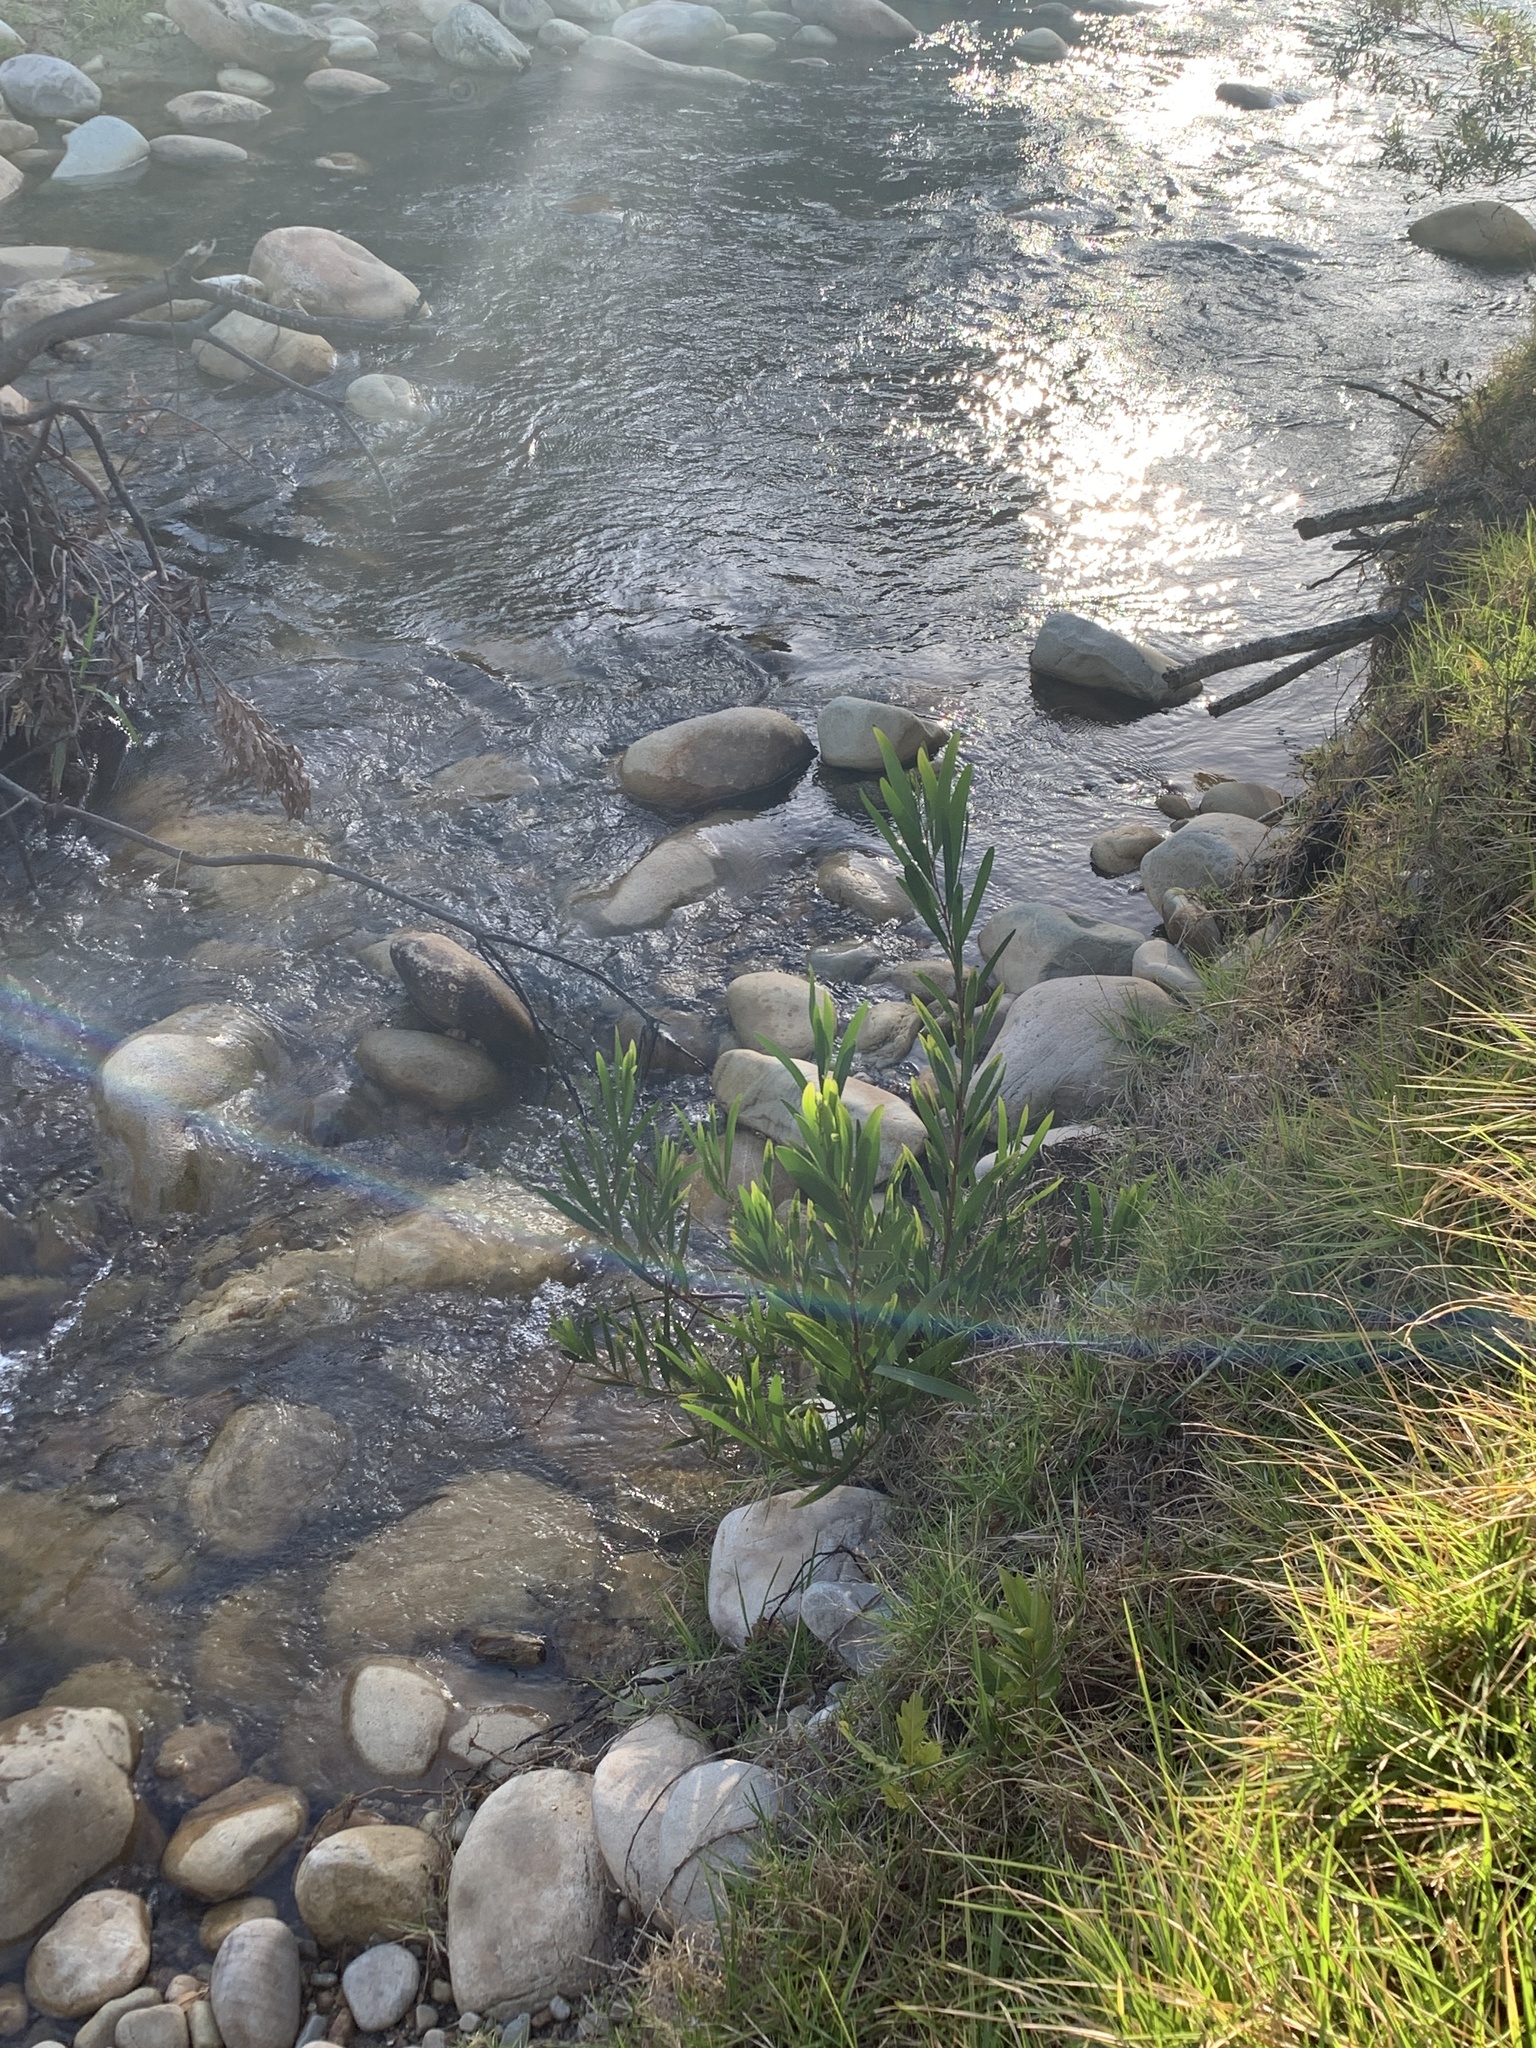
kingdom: Plantae
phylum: Tracheophyta
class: Magnoliopsida
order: Fabales
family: Fabaceae
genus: Acacia
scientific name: Acacia longifolia
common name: Sydney golden wattle
